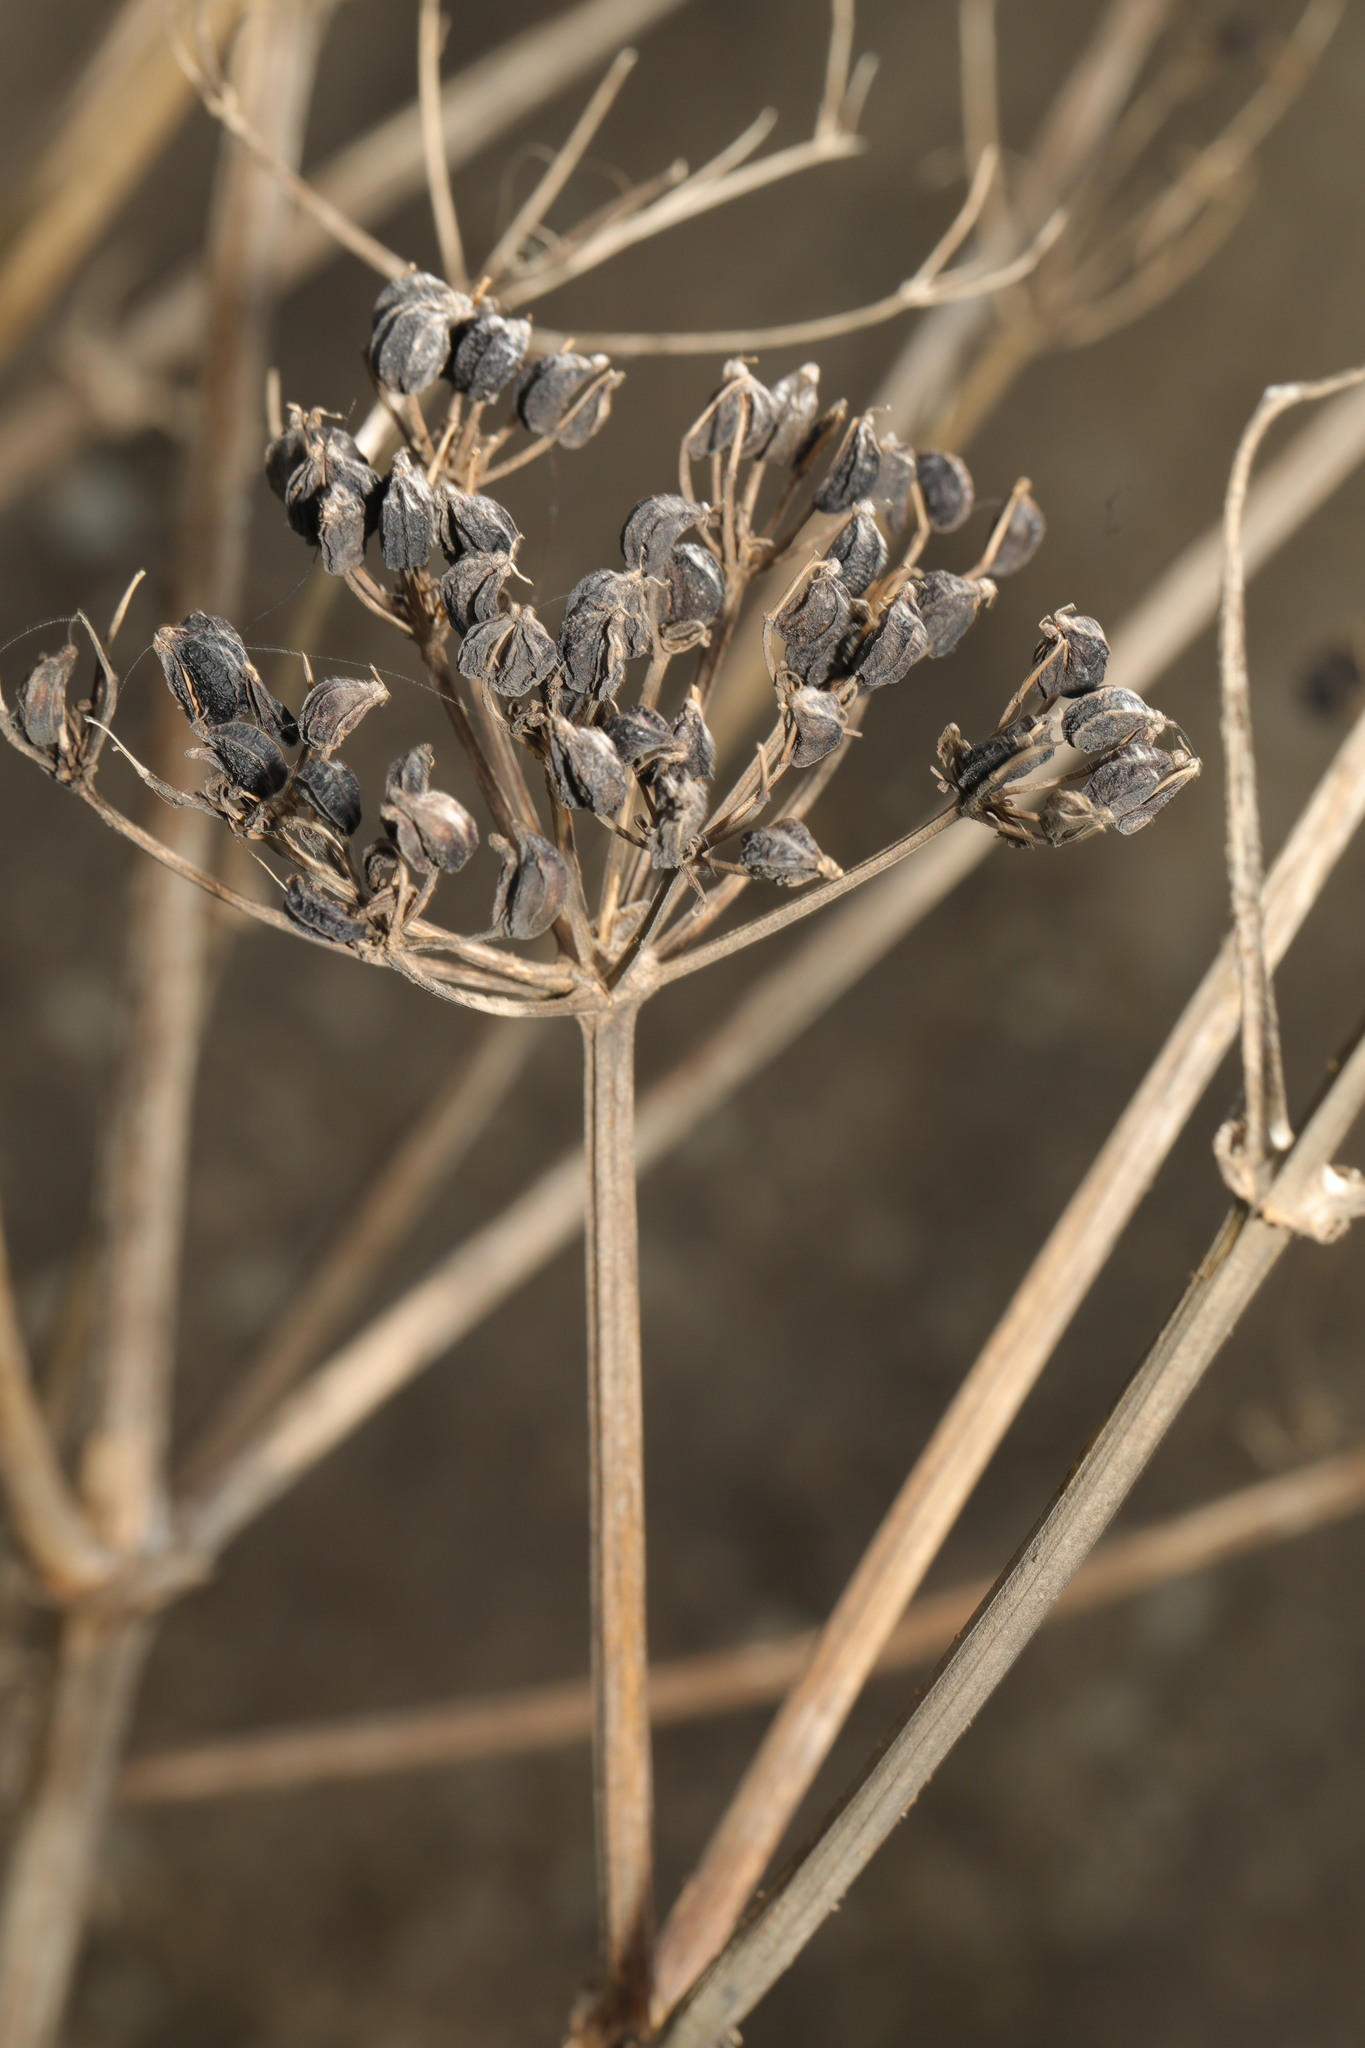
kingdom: Plantae
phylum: Tracheophyta
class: Magnoliopsida
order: Apiales
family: Apiaceae
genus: Smyrnium
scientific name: Smyrnium olusatrum
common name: Alexanders
